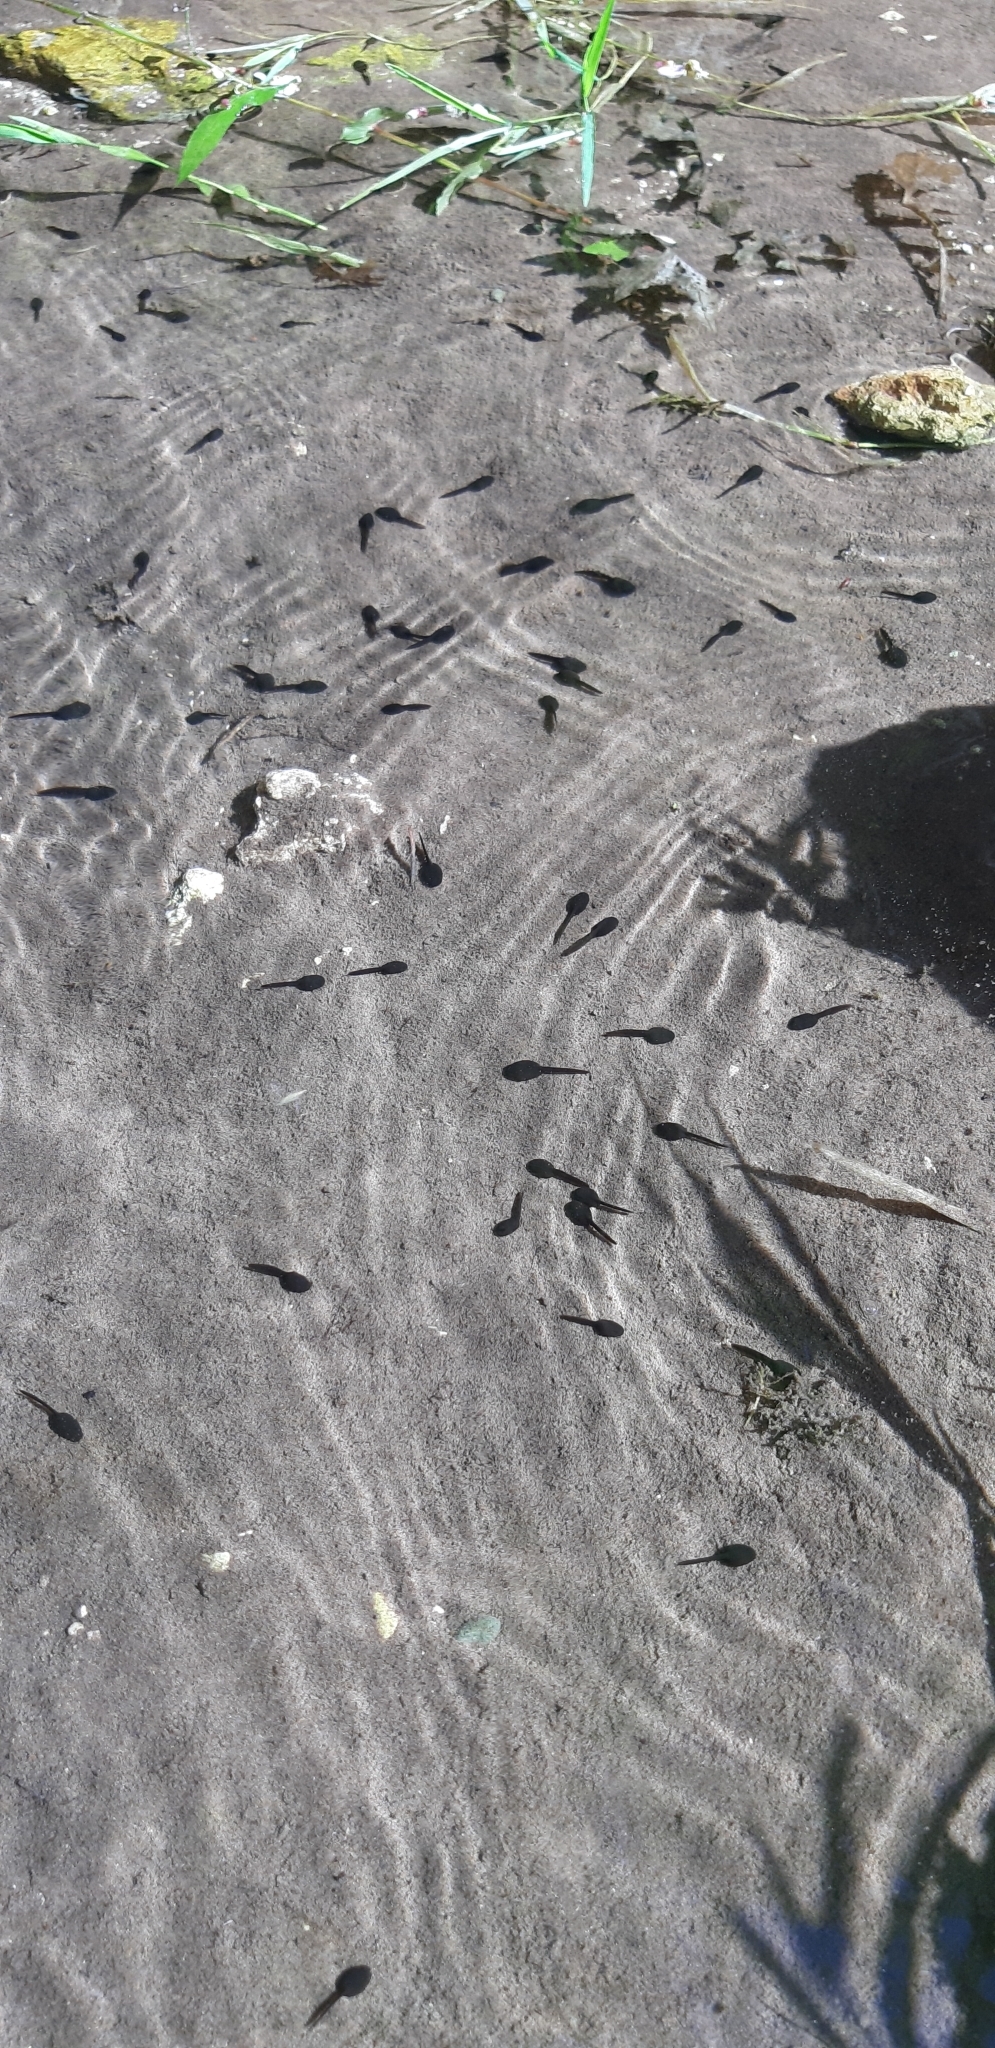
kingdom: Animalia
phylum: Chordata
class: Amphibia
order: Anura
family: Bufonidae
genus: Bufo
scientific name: Bufo bufo
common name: Common toad
